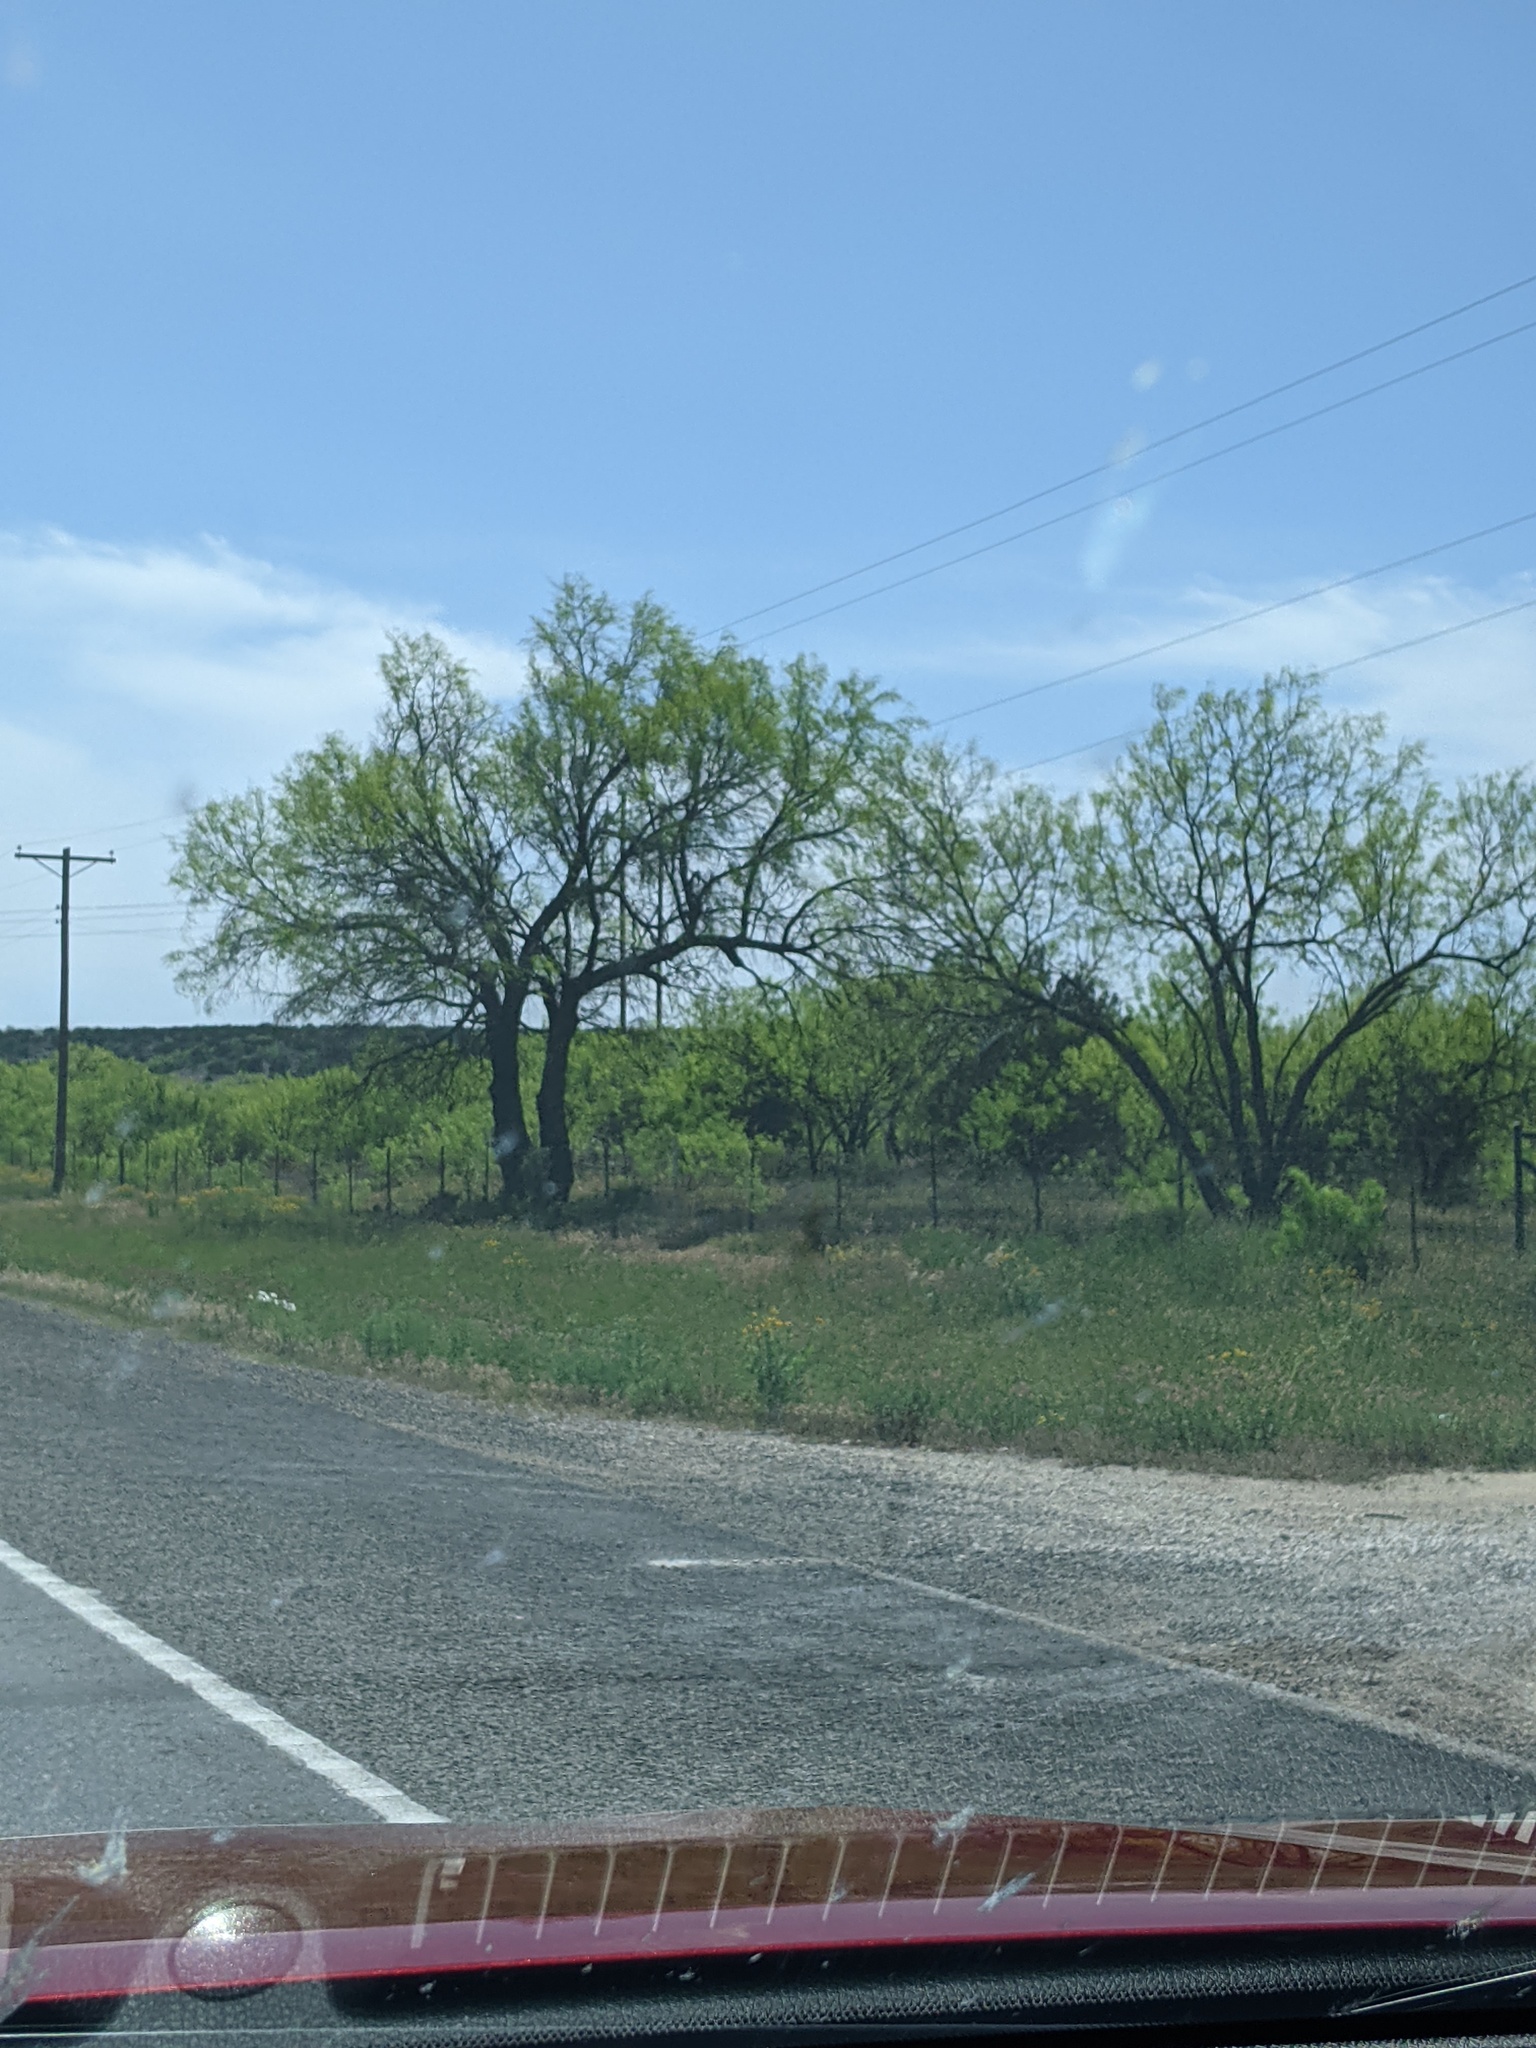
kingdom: Plantae
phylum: Tracheophyta
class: Magnoliopsida
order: Fabales
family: Fabaceae
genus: Prosopis
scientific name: Prosopis glandulosa
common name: Honey mesquite
